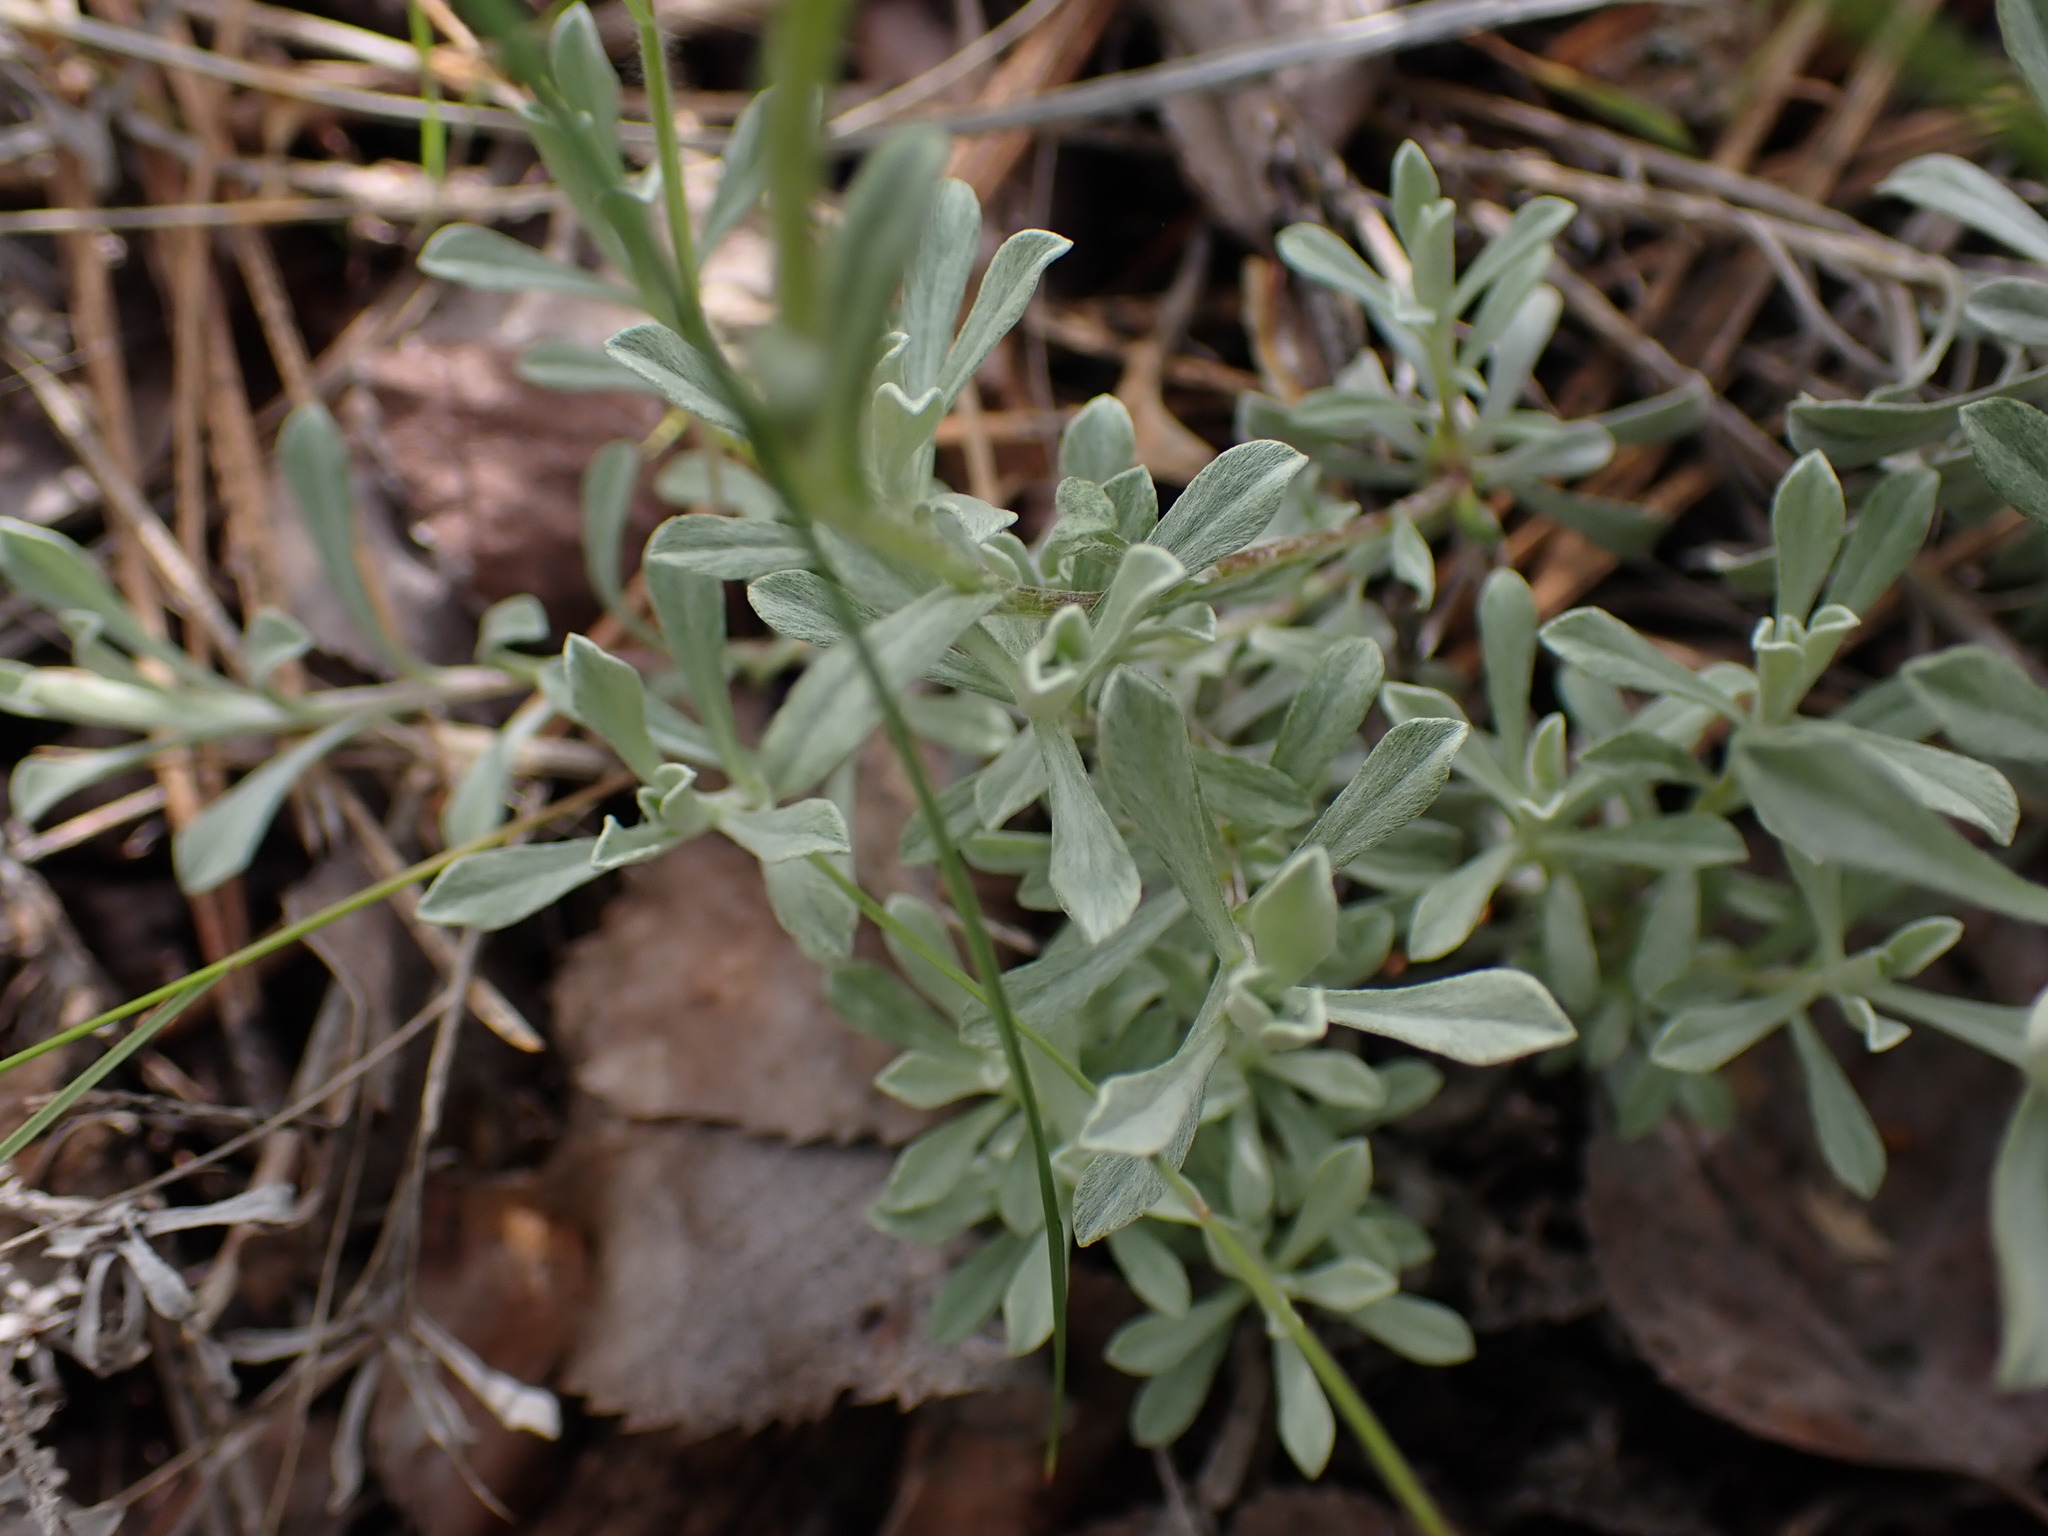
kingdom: Plantae
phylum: Tracheophyta
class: Magnoliopsida
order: Asterales
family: Asteraceae
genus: Antennaria
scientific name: Antennaria umbrinella
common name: Brown pussytoes
